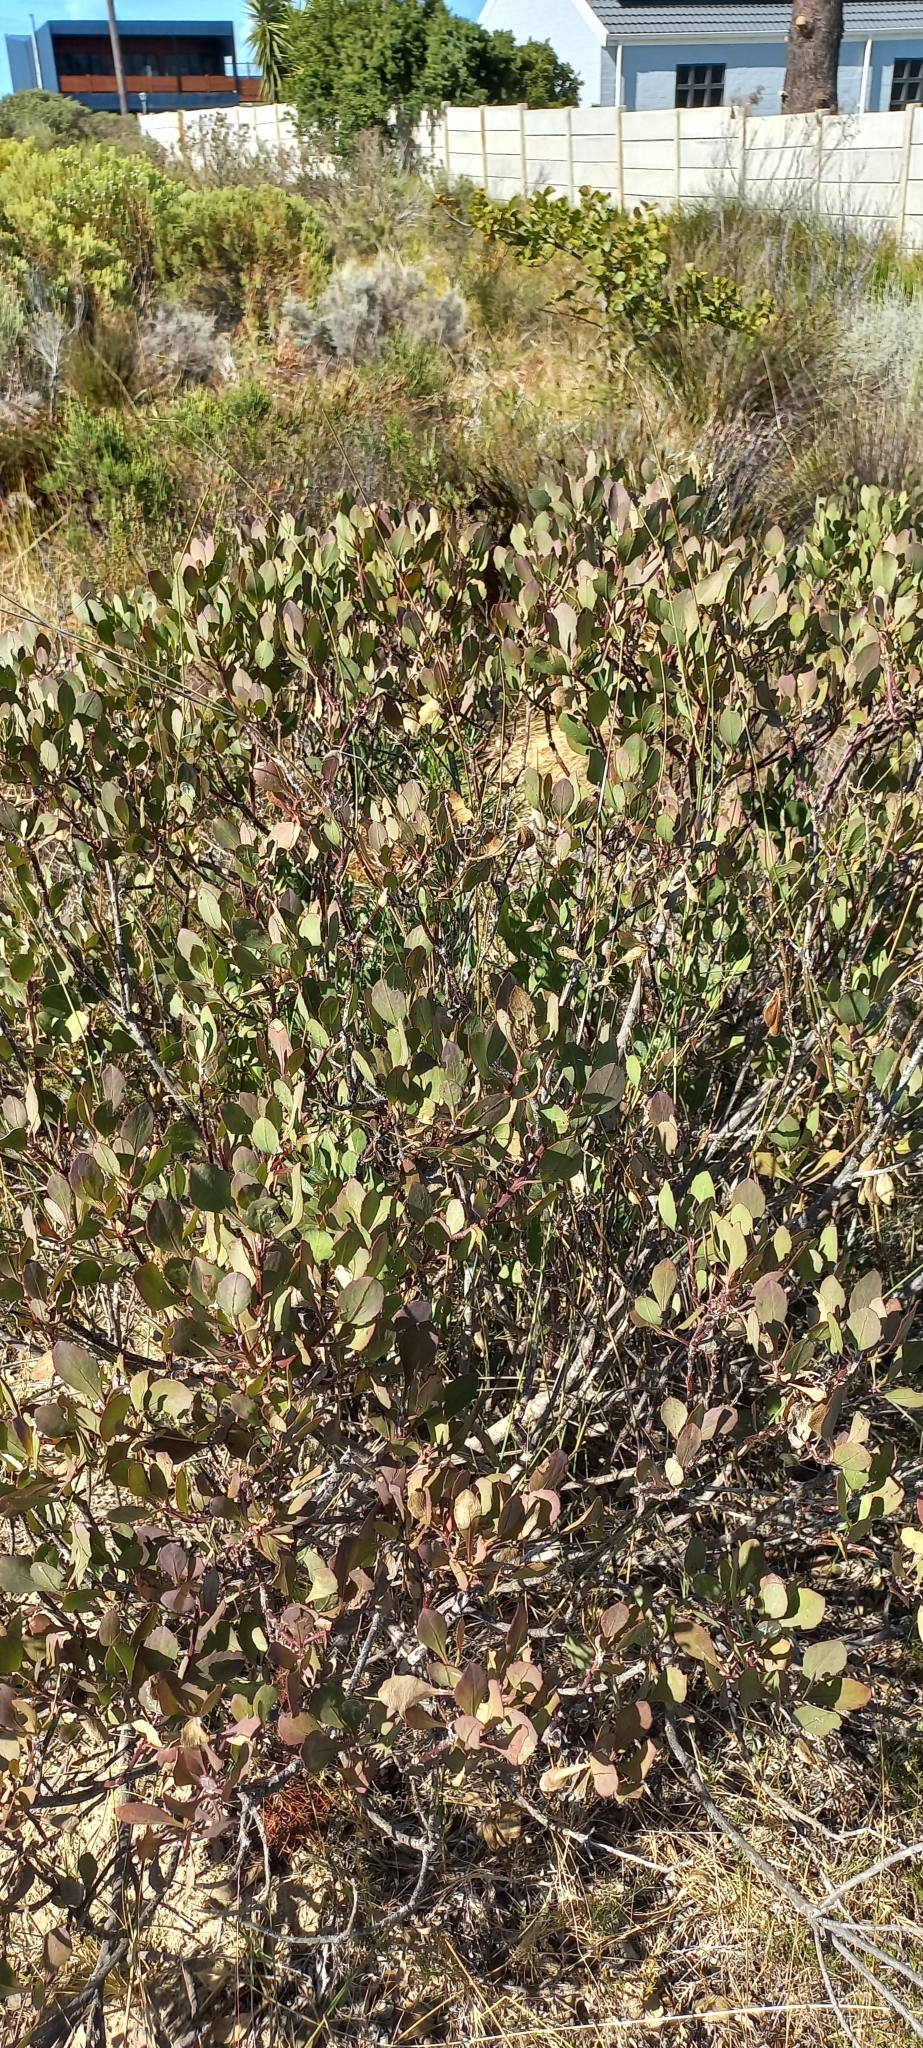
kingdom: Plantae
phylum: Tracheophyta
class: Magnoliopsida
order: Asterales
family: Asteraceae
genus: Osteospermum
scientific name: Osteospermum moniliferum
